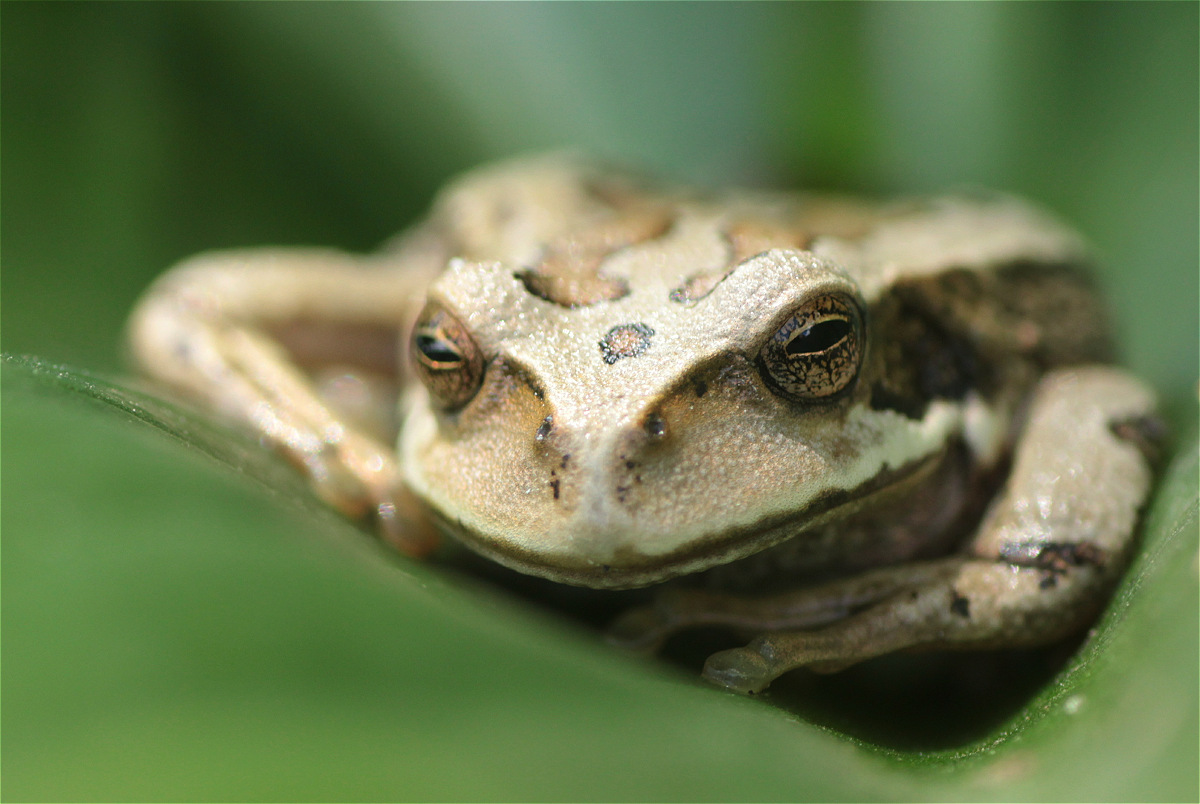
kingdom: Animalia
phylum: Chordata
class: Amphibia
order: Anura
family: Hemiphractidae
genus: Gastrotheca
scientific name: Gastrotheca cuencana
